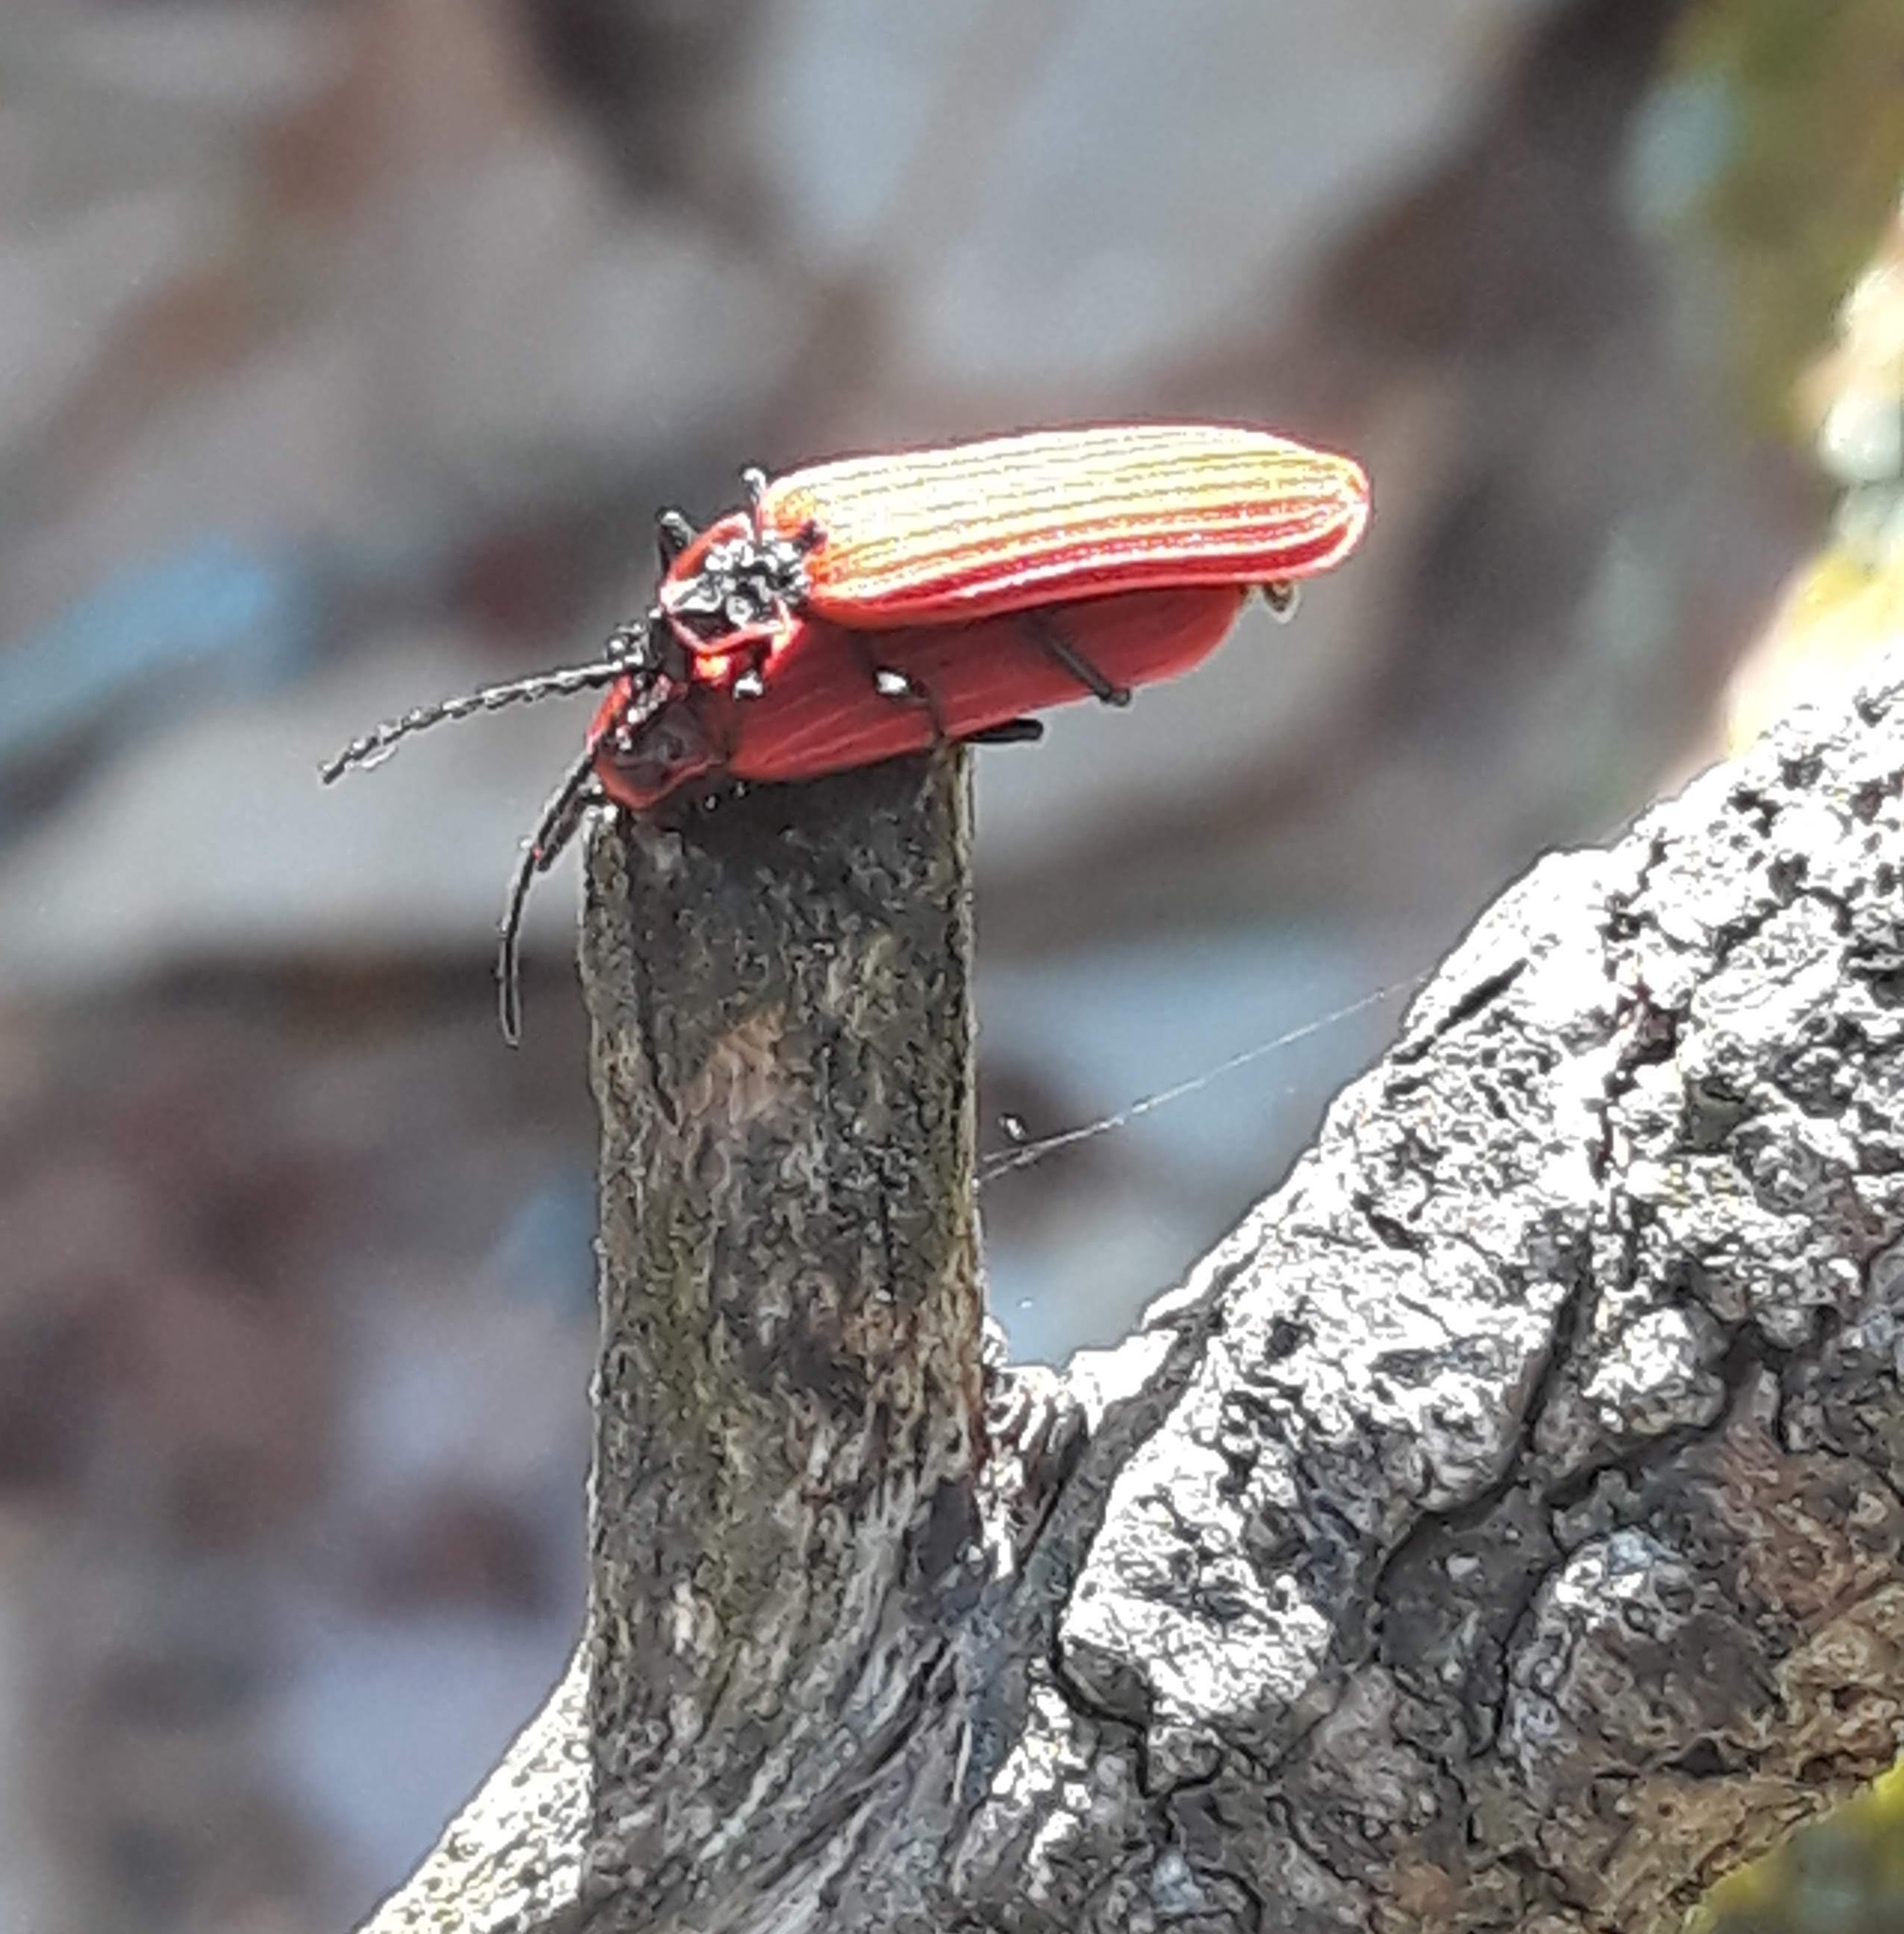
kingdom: Animalia
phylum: Arthropoda
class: Insecta
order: Coleoptera
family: Lycidae
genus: Dictyoptera
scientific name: Dictyoptera aurora
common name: Golden net-winged beetle
